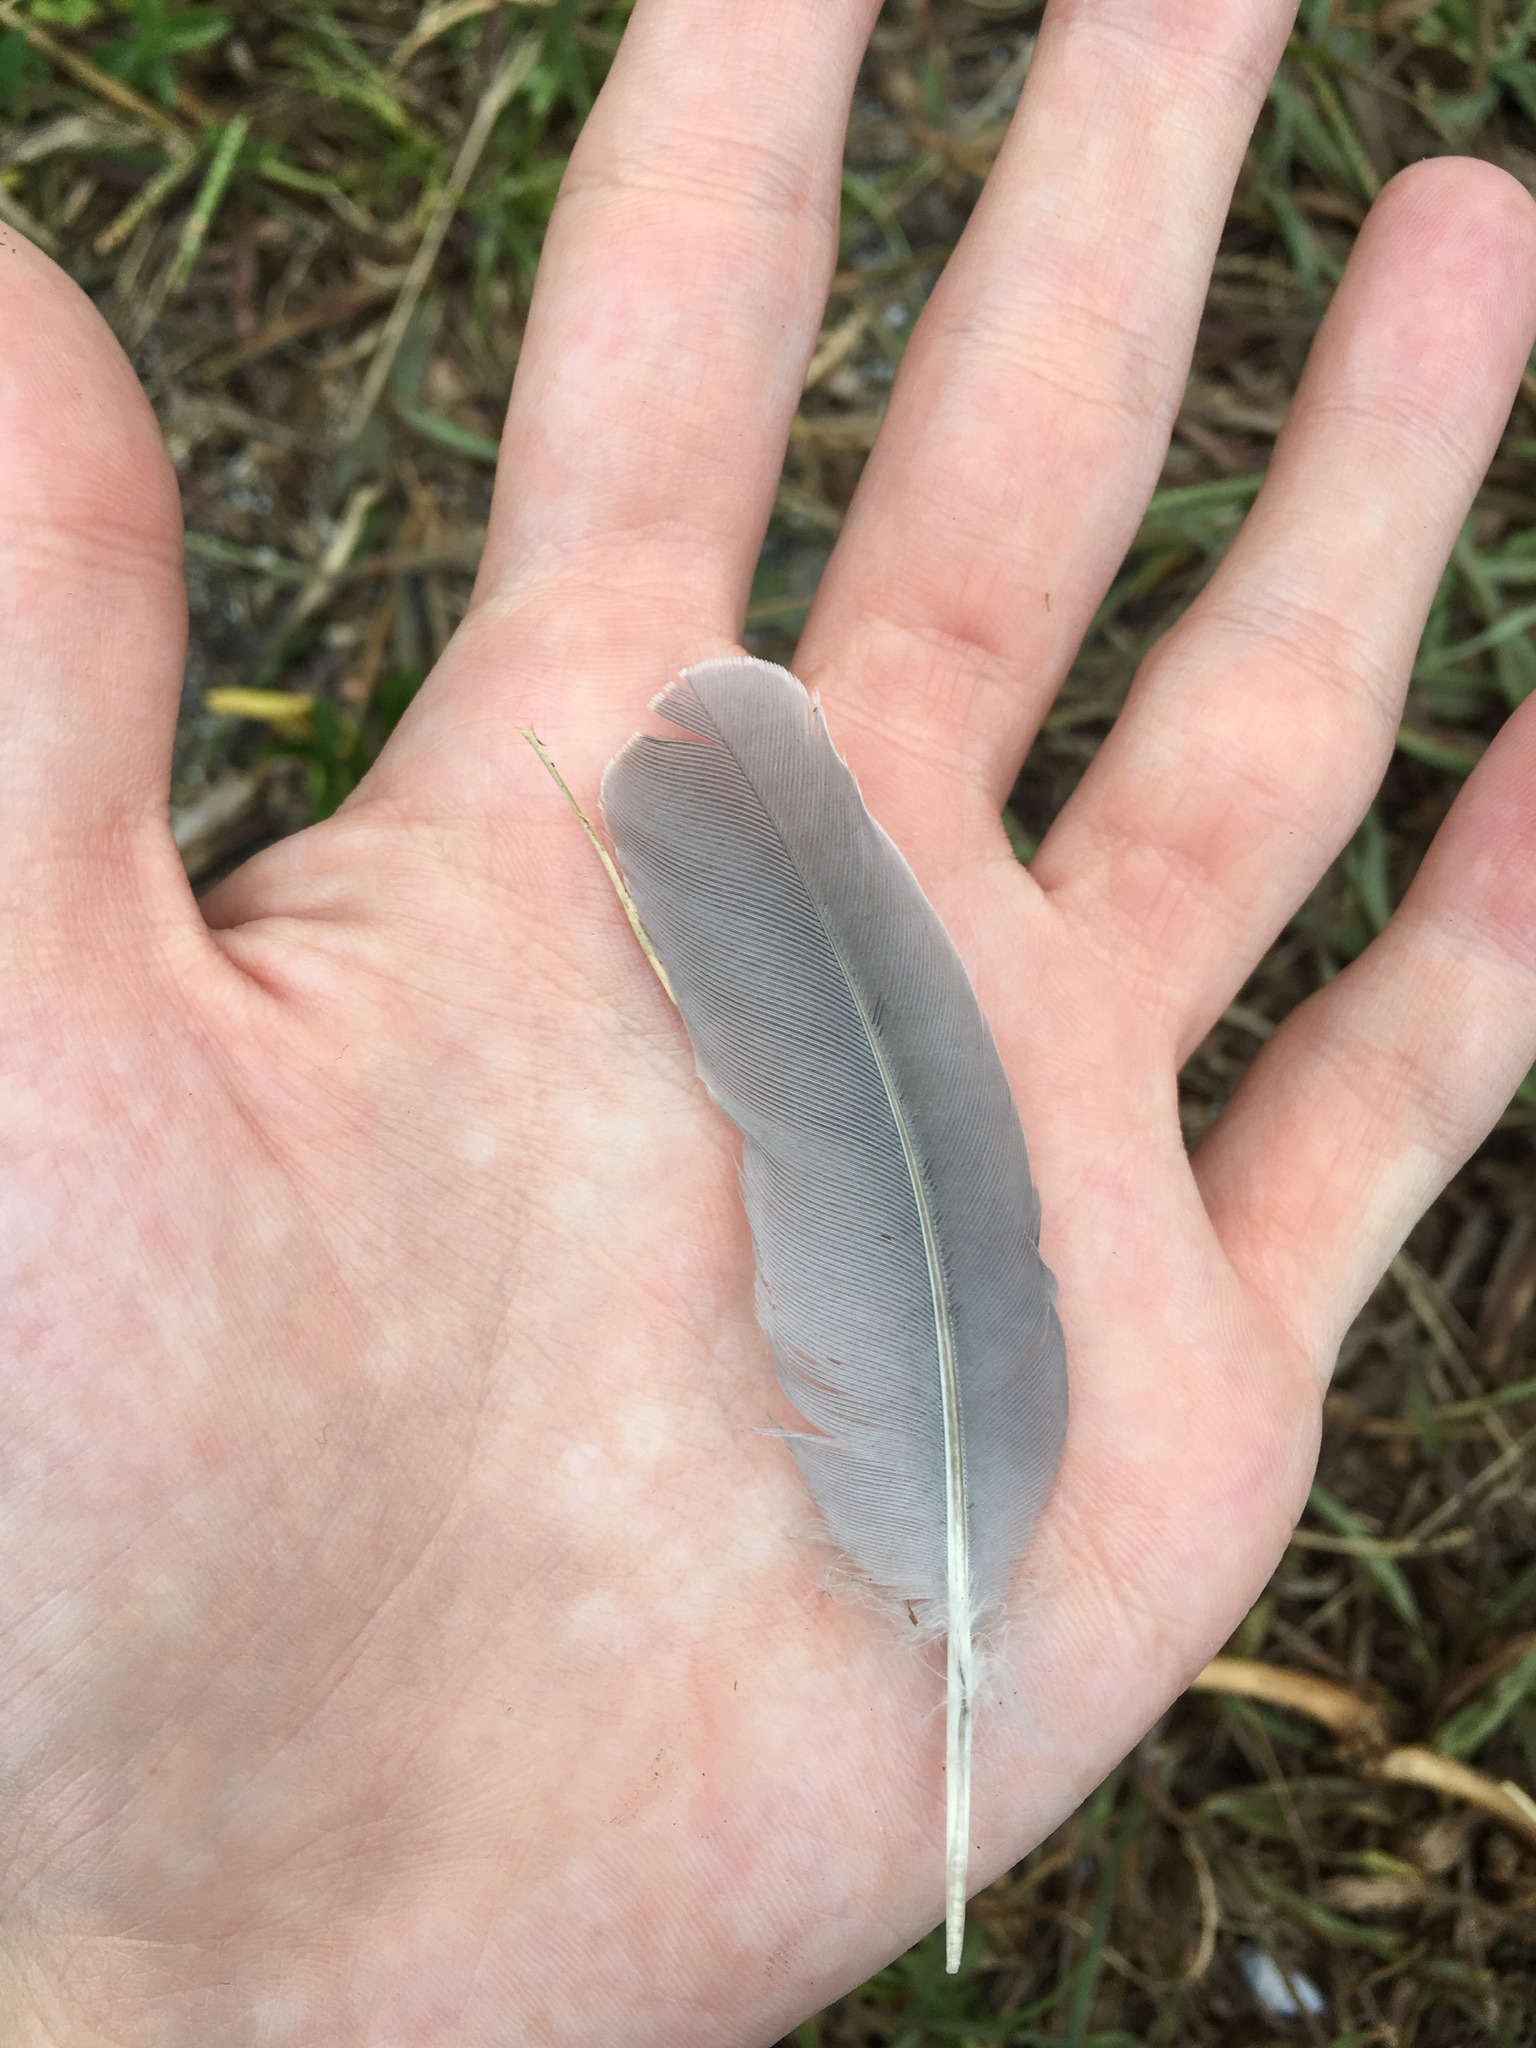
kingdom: Animalia
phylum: Chordata
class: Aves
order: Columbiformes
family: Columbidae
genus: Zenaida
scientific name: Zenaida macroura
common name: Mourning dove
